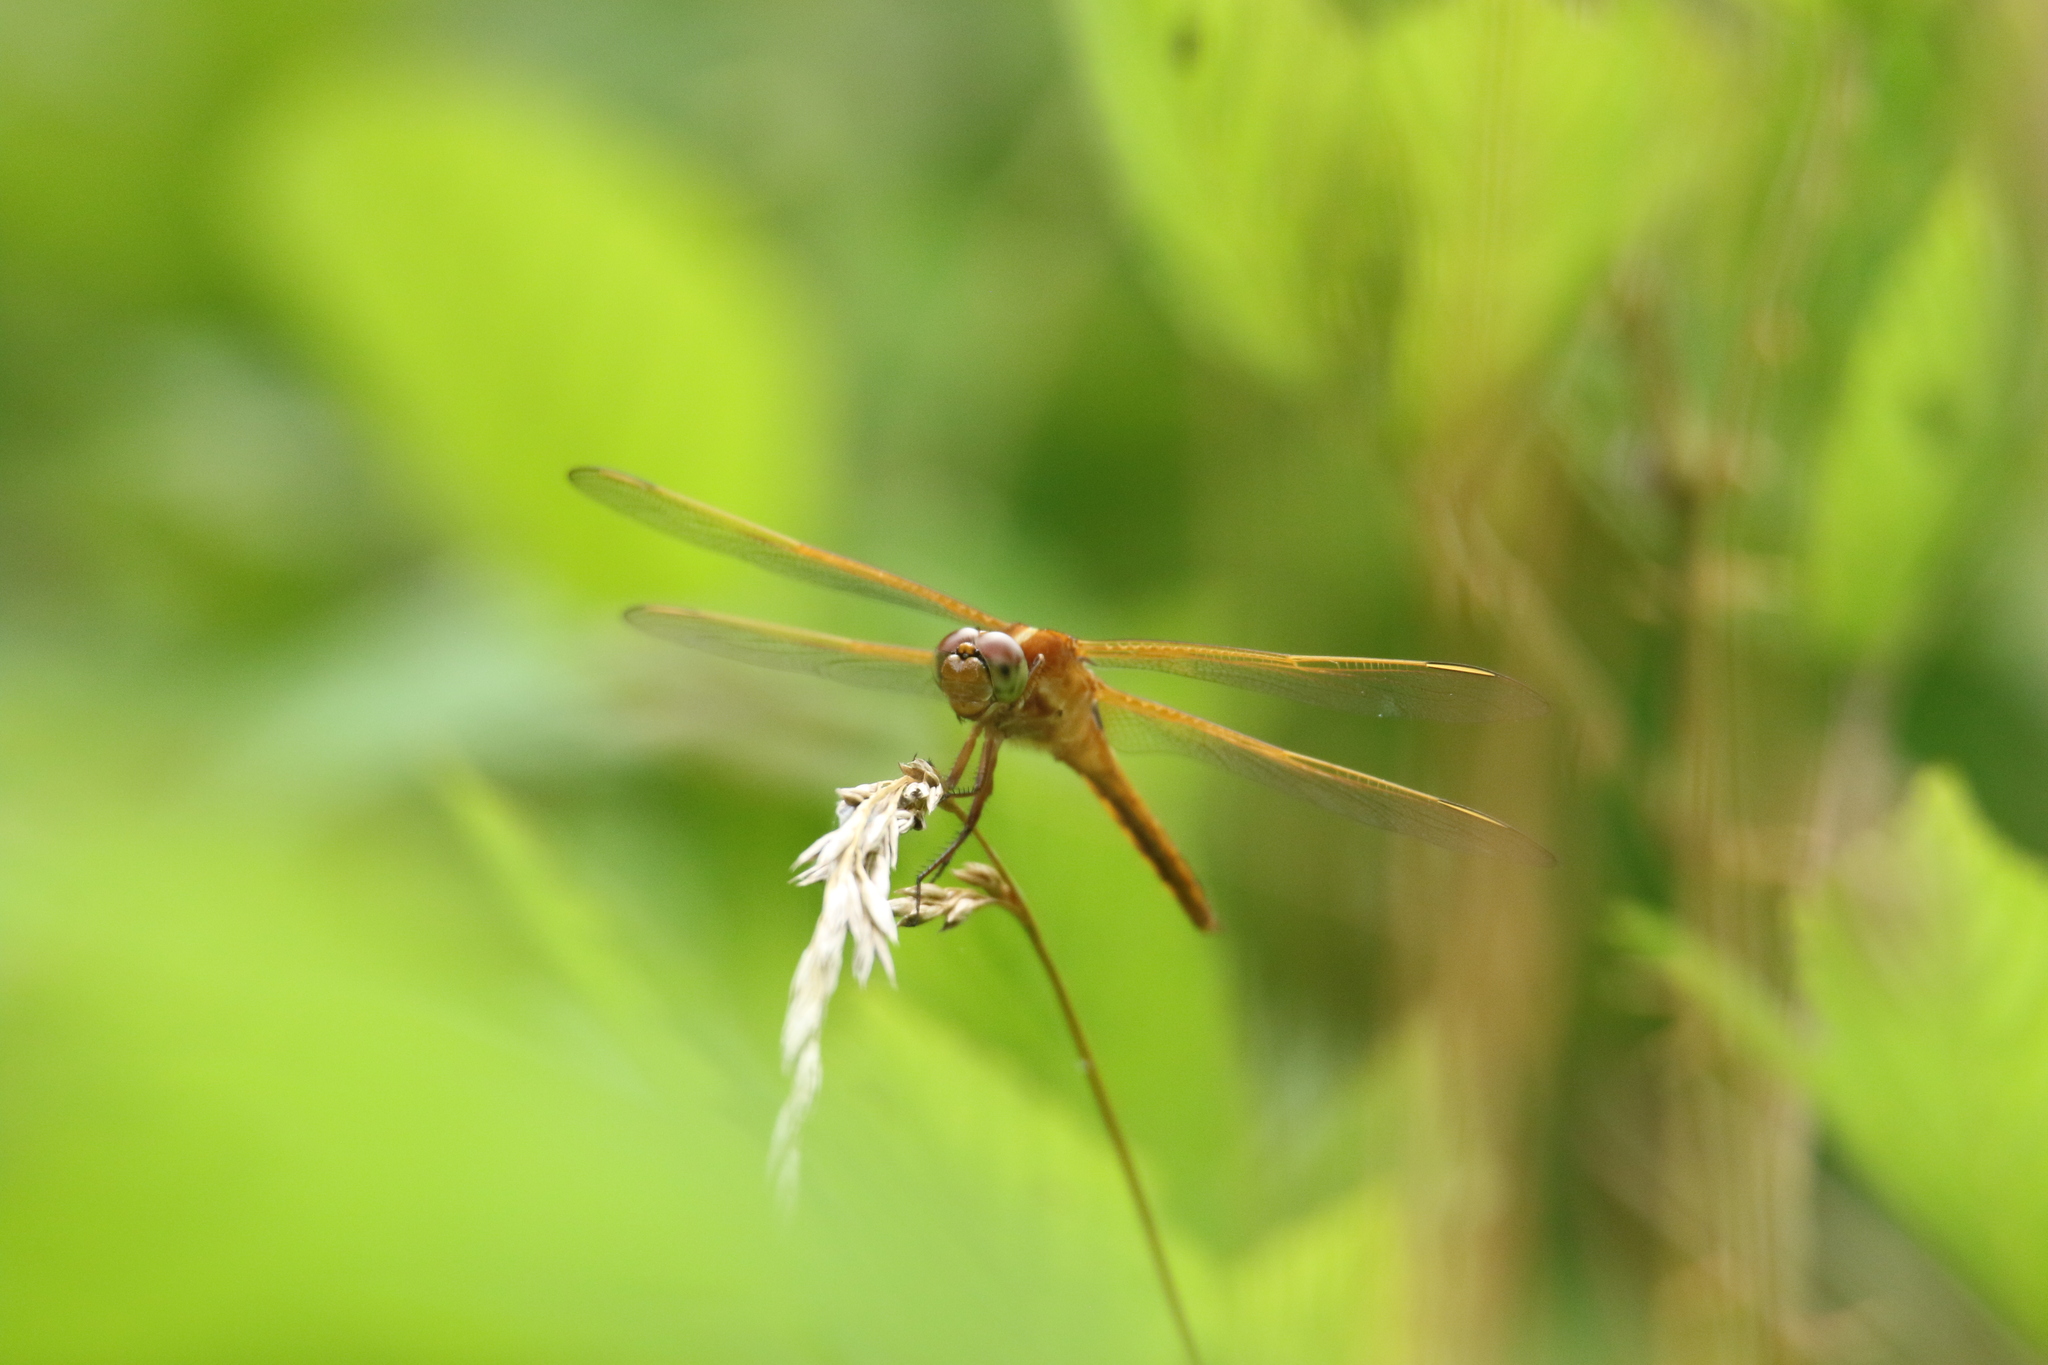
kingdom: Animalia
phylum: Arthropoda
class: Insecta
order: Odonata
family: Libellulidae
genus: Libellula
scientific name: Libellula needhami
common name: Needham's skimmer
